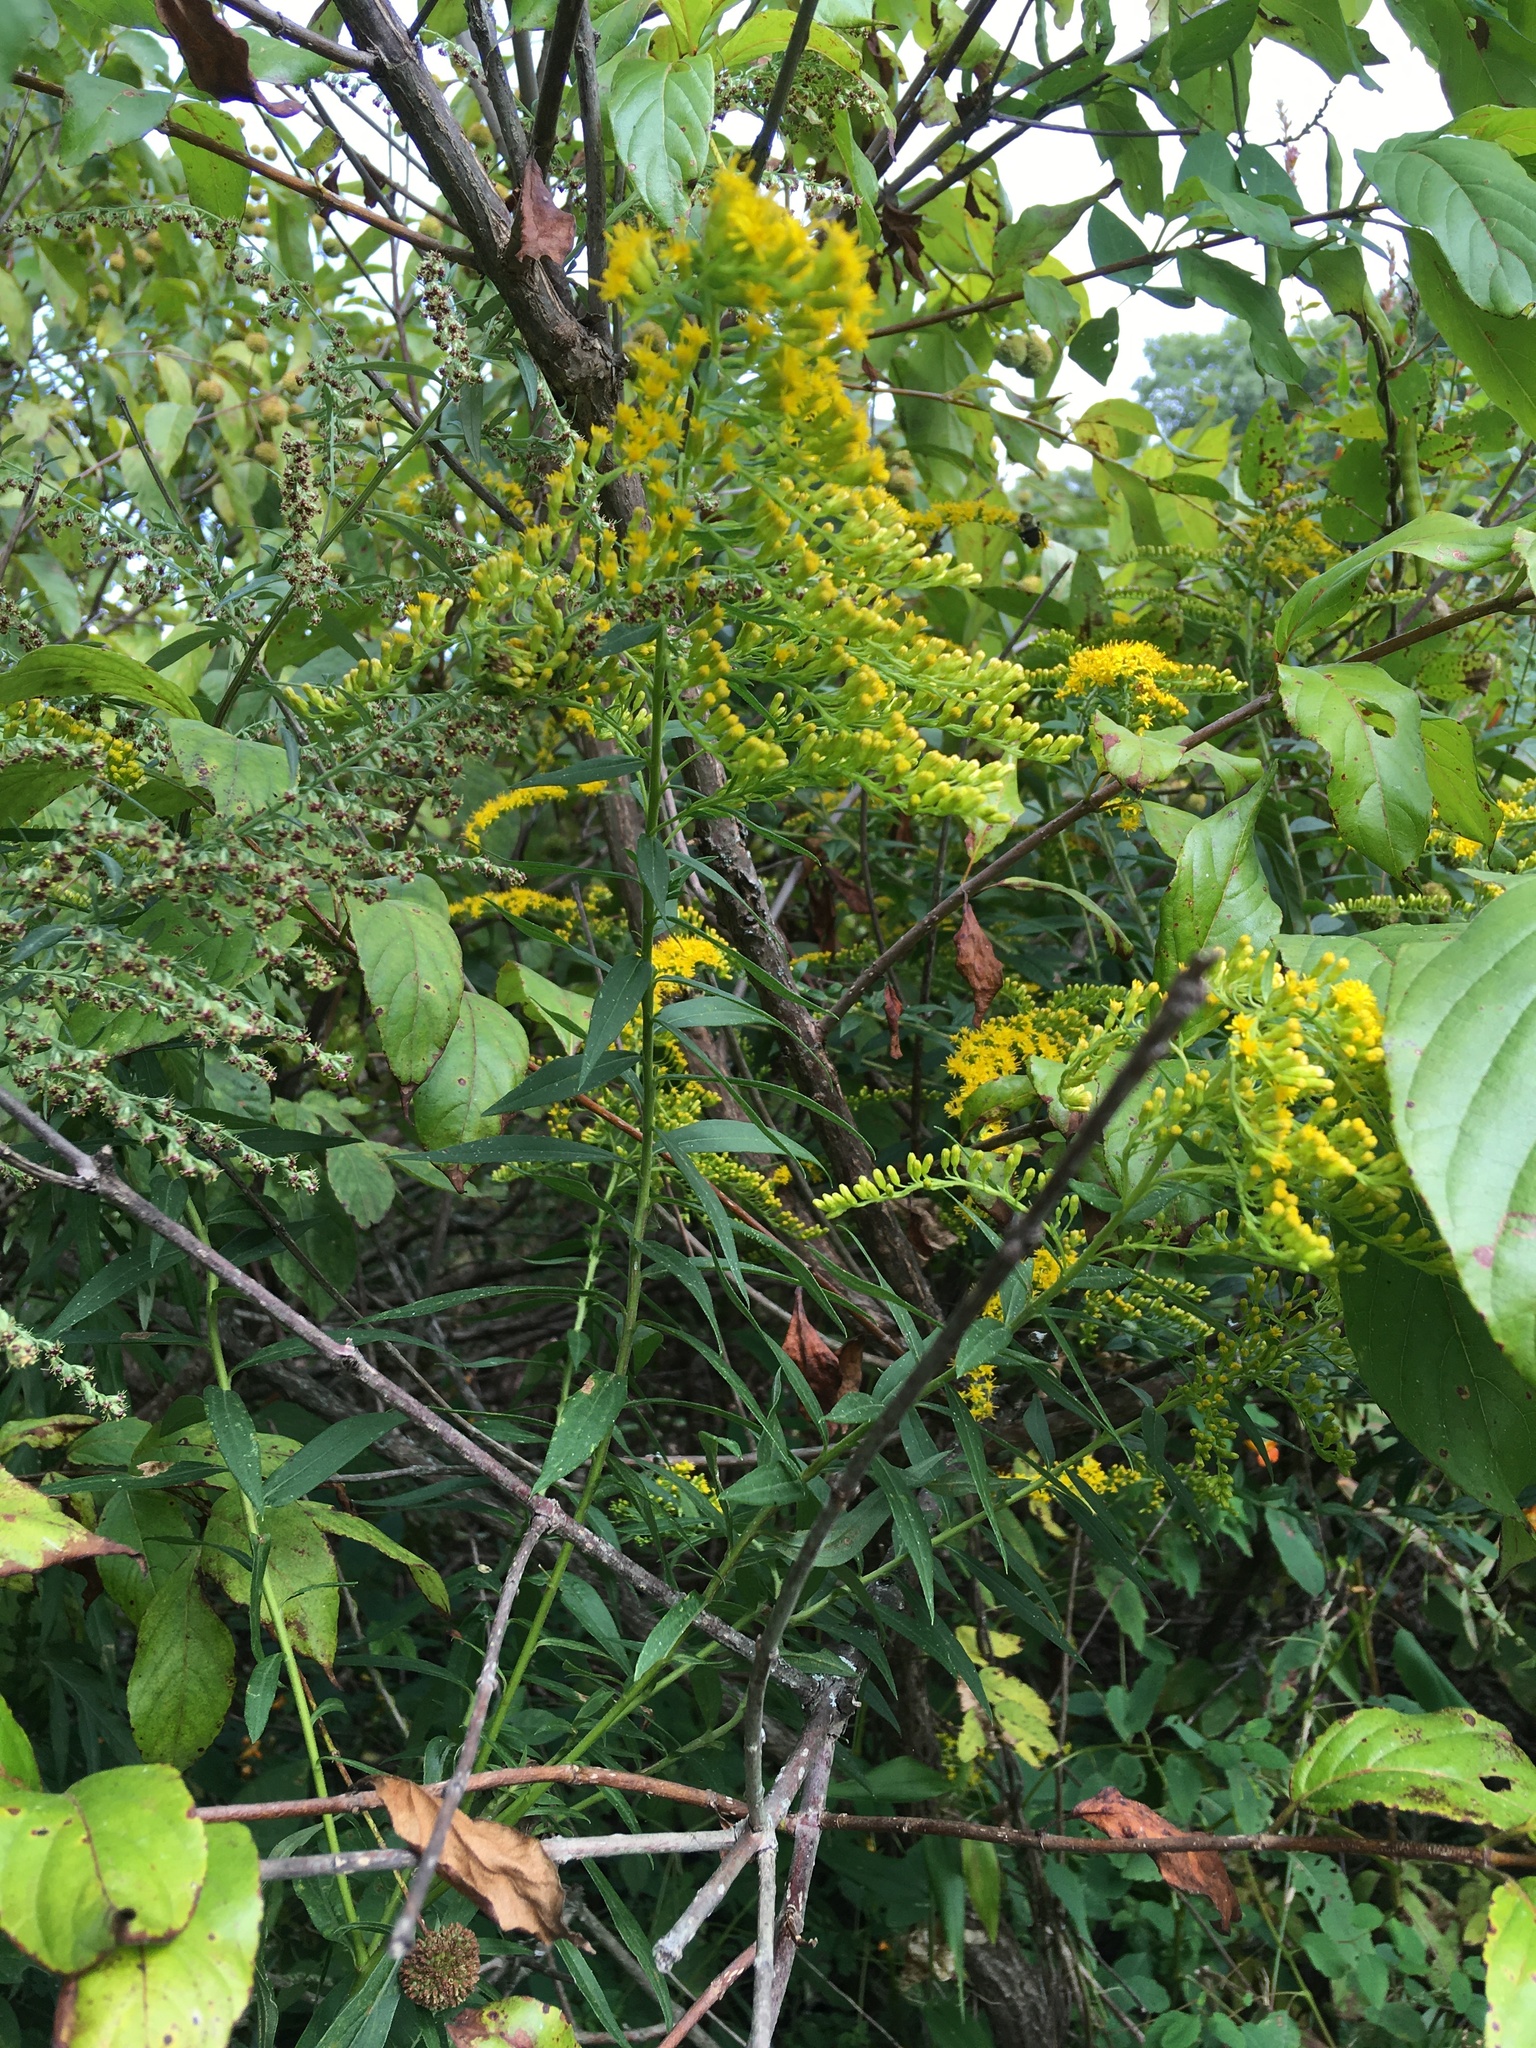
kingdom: Animalia
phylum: Arthropoda
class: Insecta
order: Diptera
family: Tephritidae
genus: Eurosta
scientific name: Eurosta solidaginis
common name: Goldenrod gall fly
